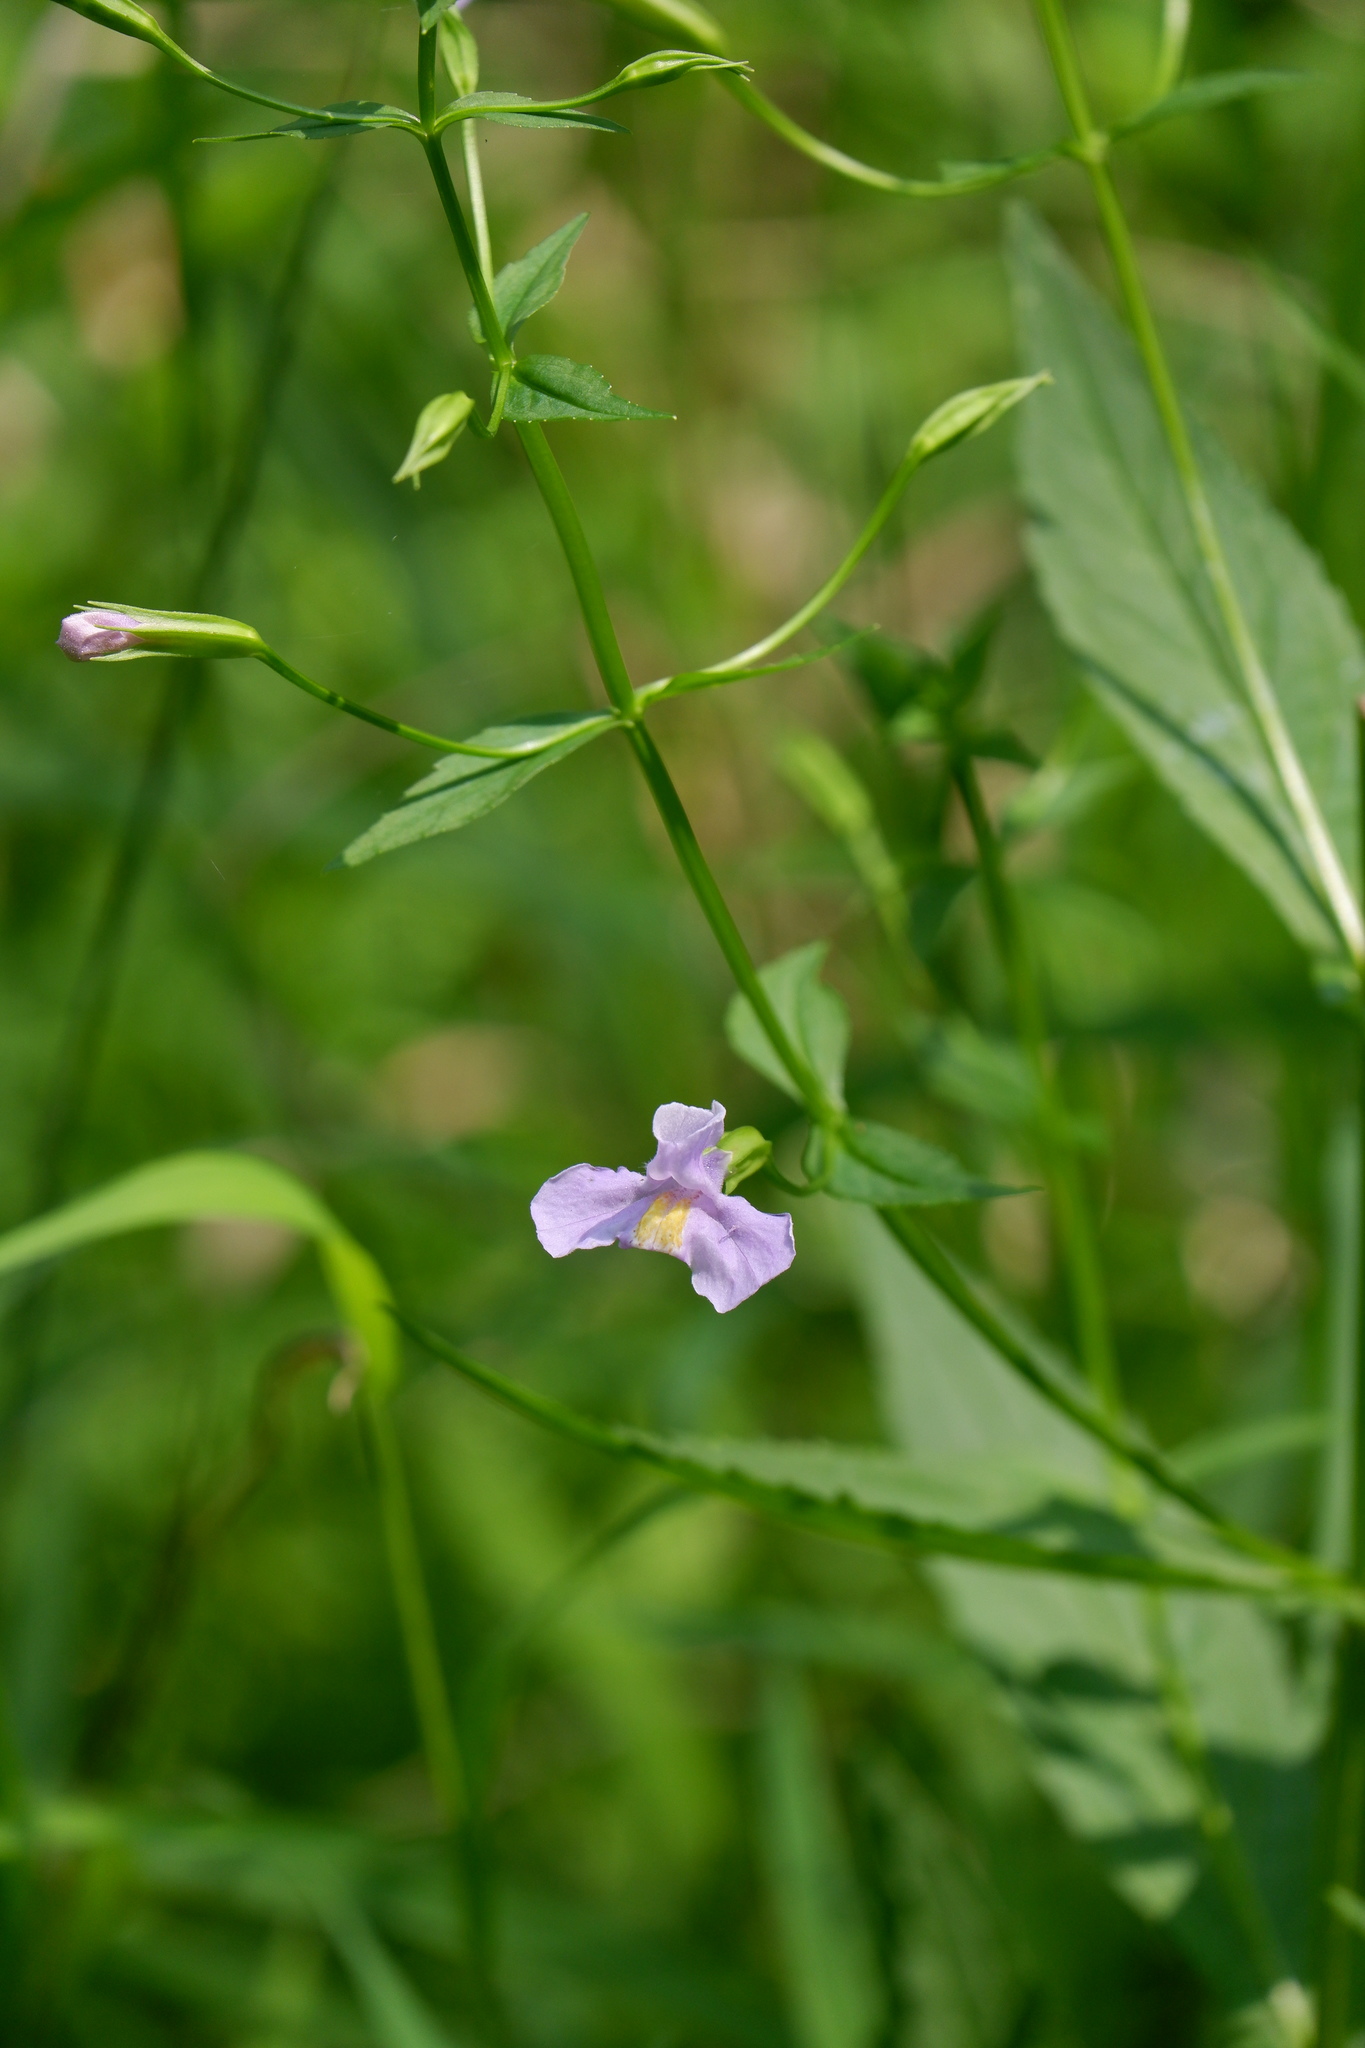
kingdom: Plantae
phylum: Tracheophyta
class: Magnoliopsida
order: Lamiales
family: Phrymaceae
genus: Mimulus
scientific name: Mimulus ringens
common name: Allegheny monkeyflower
